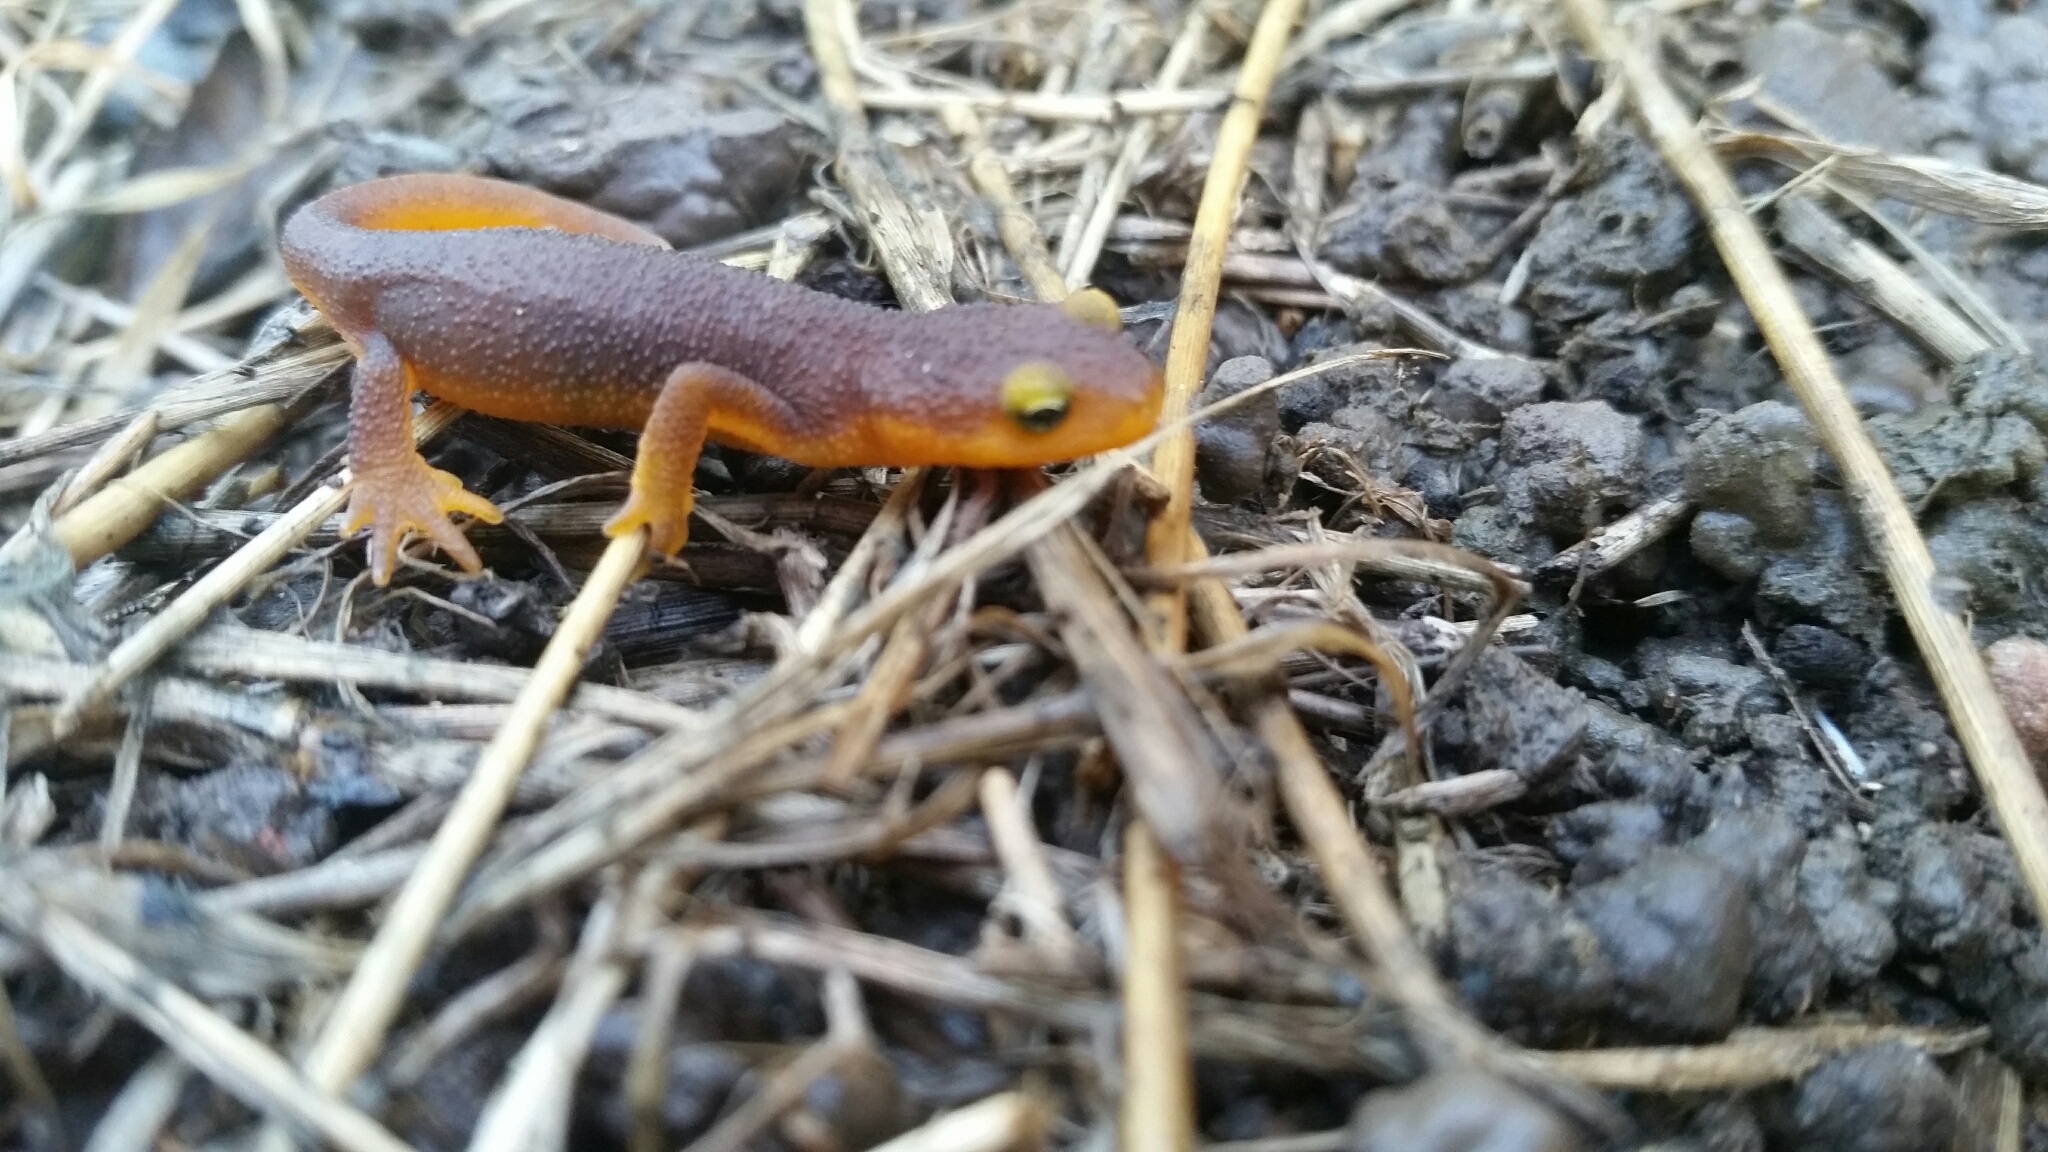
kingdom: Animalia
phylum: Chordata
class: Amphibia
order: Caudata
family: Salamandridae
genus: Taricha
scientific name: Taricha torosa
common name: California newt
